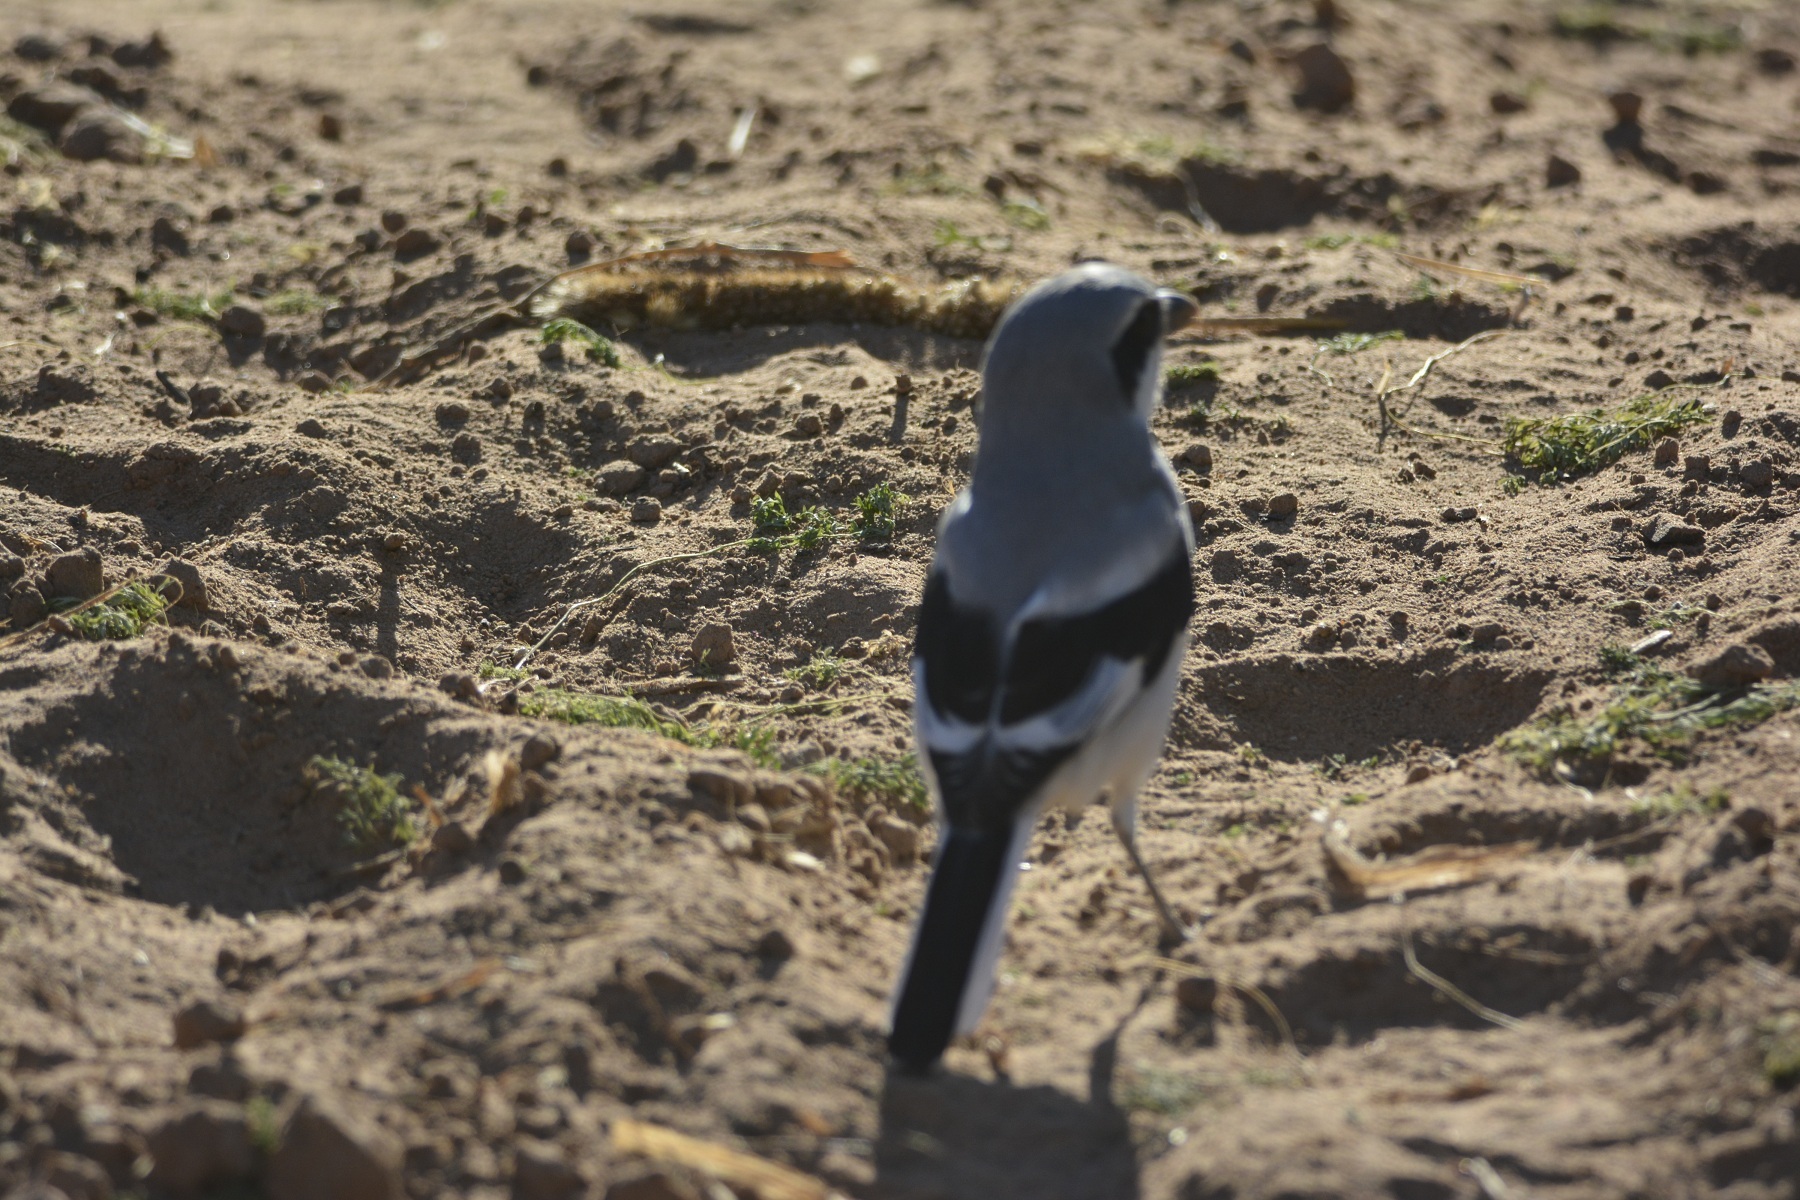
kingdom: Animalia
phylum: Chordata
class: Aves
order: Passeriformes
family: Laniidae
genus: Lanius
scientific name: Lanius excubitor
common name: Great grey shrike
